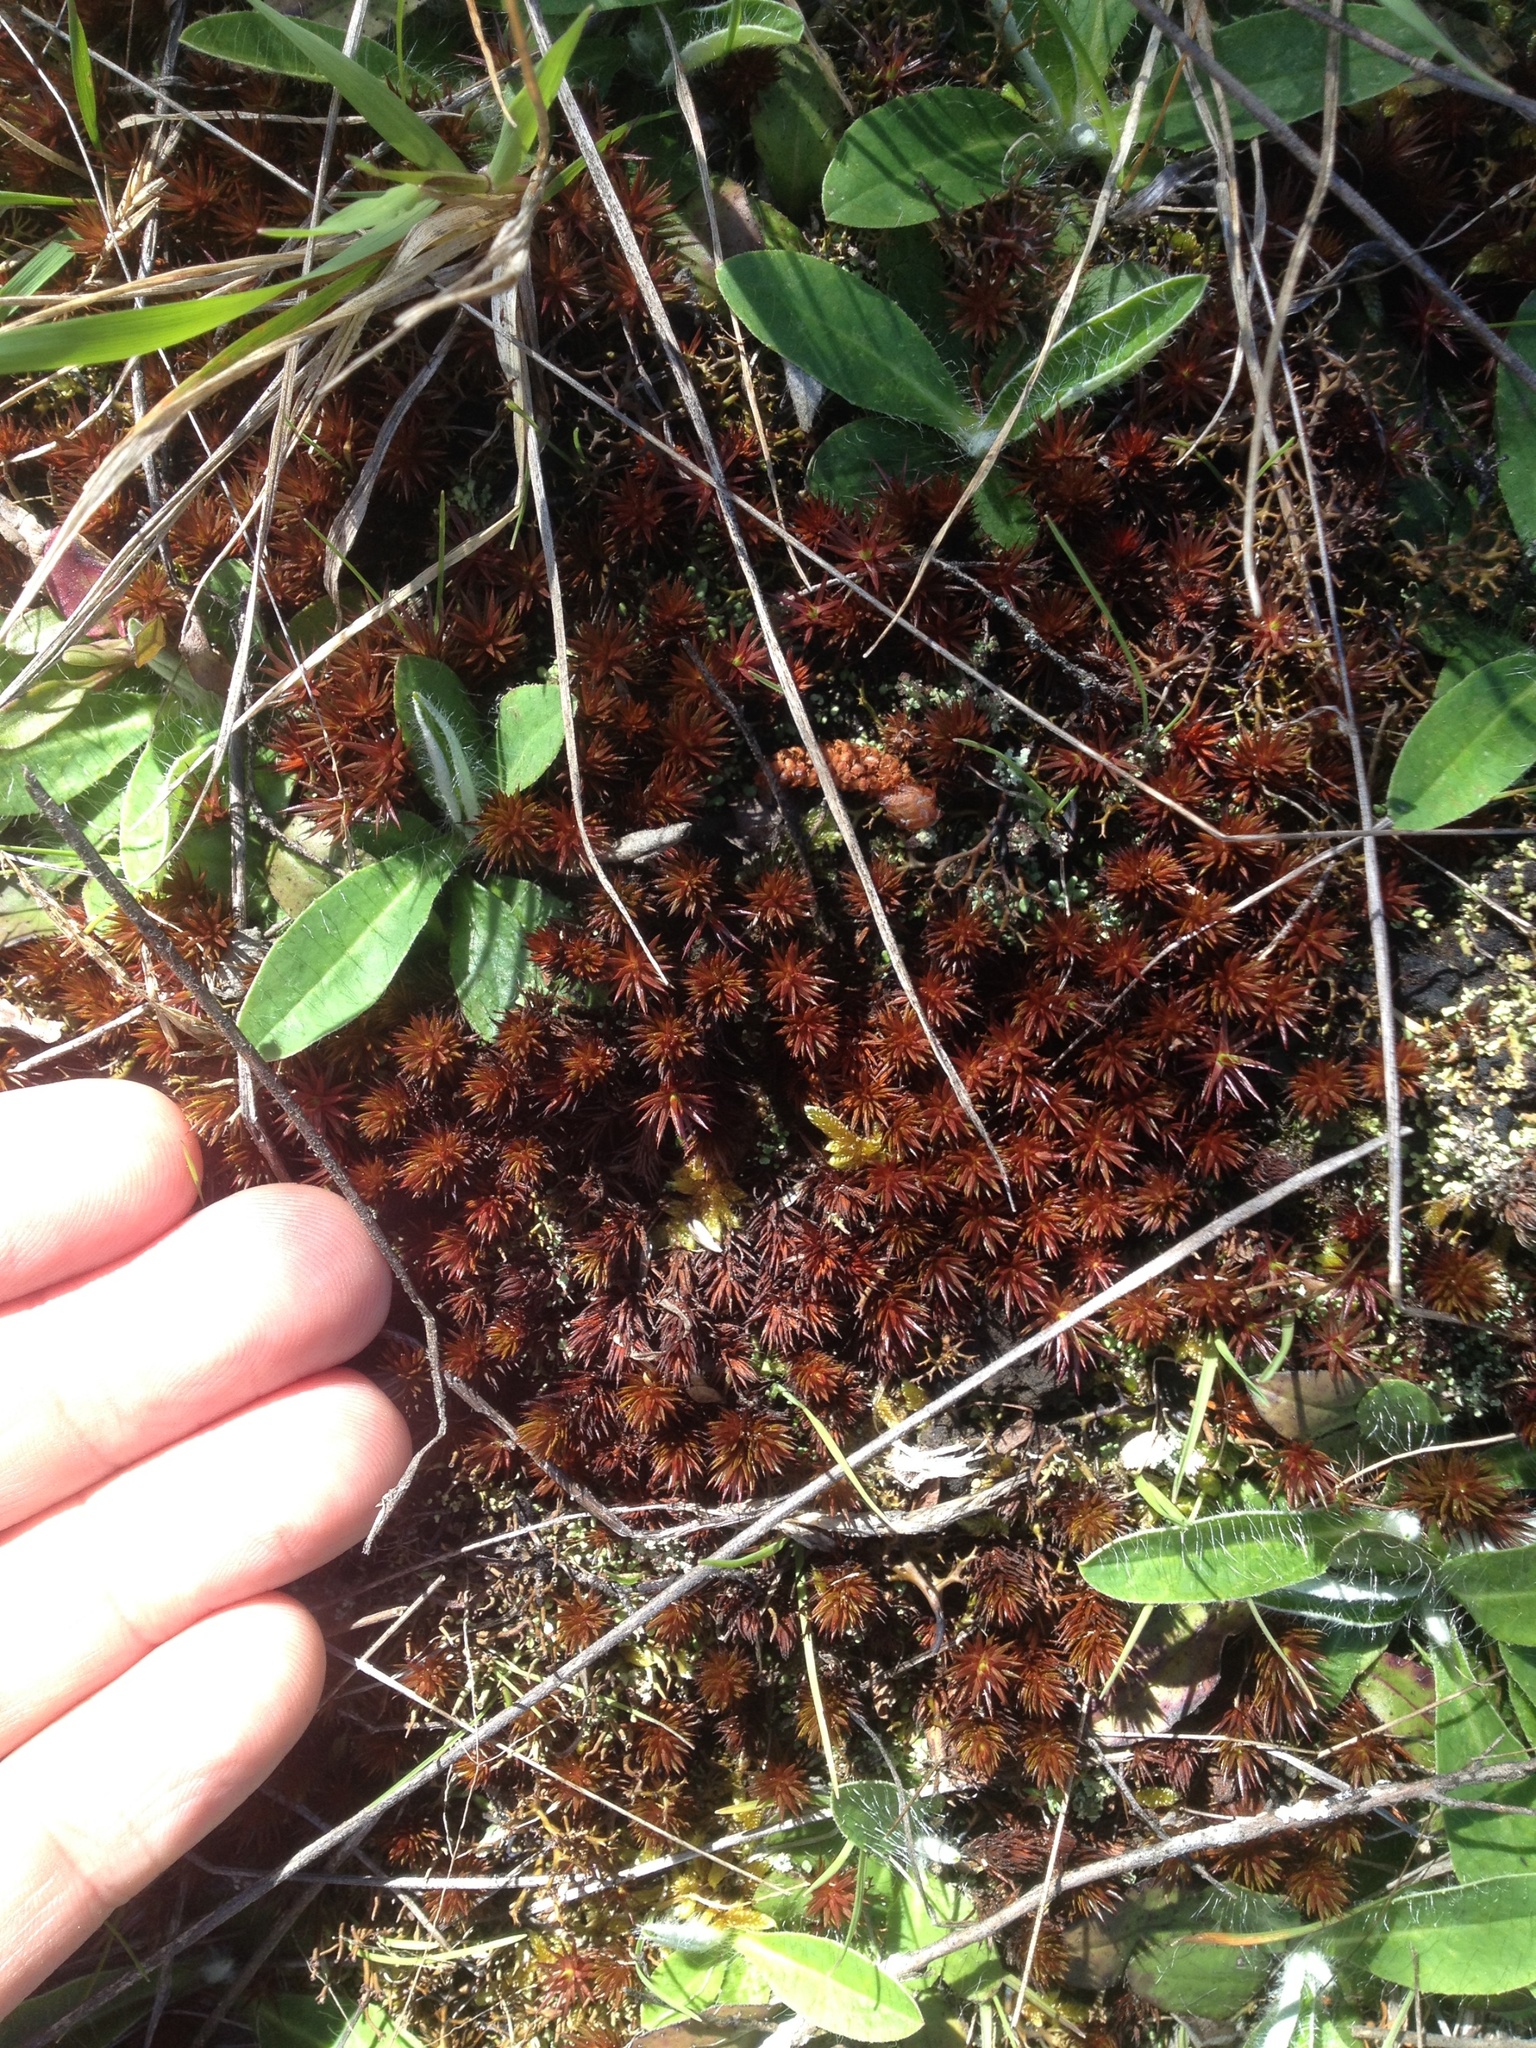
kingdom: Plantae
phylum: Bryophyta
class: Polytrichopsida
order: Polytrichales
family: Polytrichaceae
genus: Polytrichum
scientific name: Polytrichum juniperinum
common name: Juniper haircap moss
